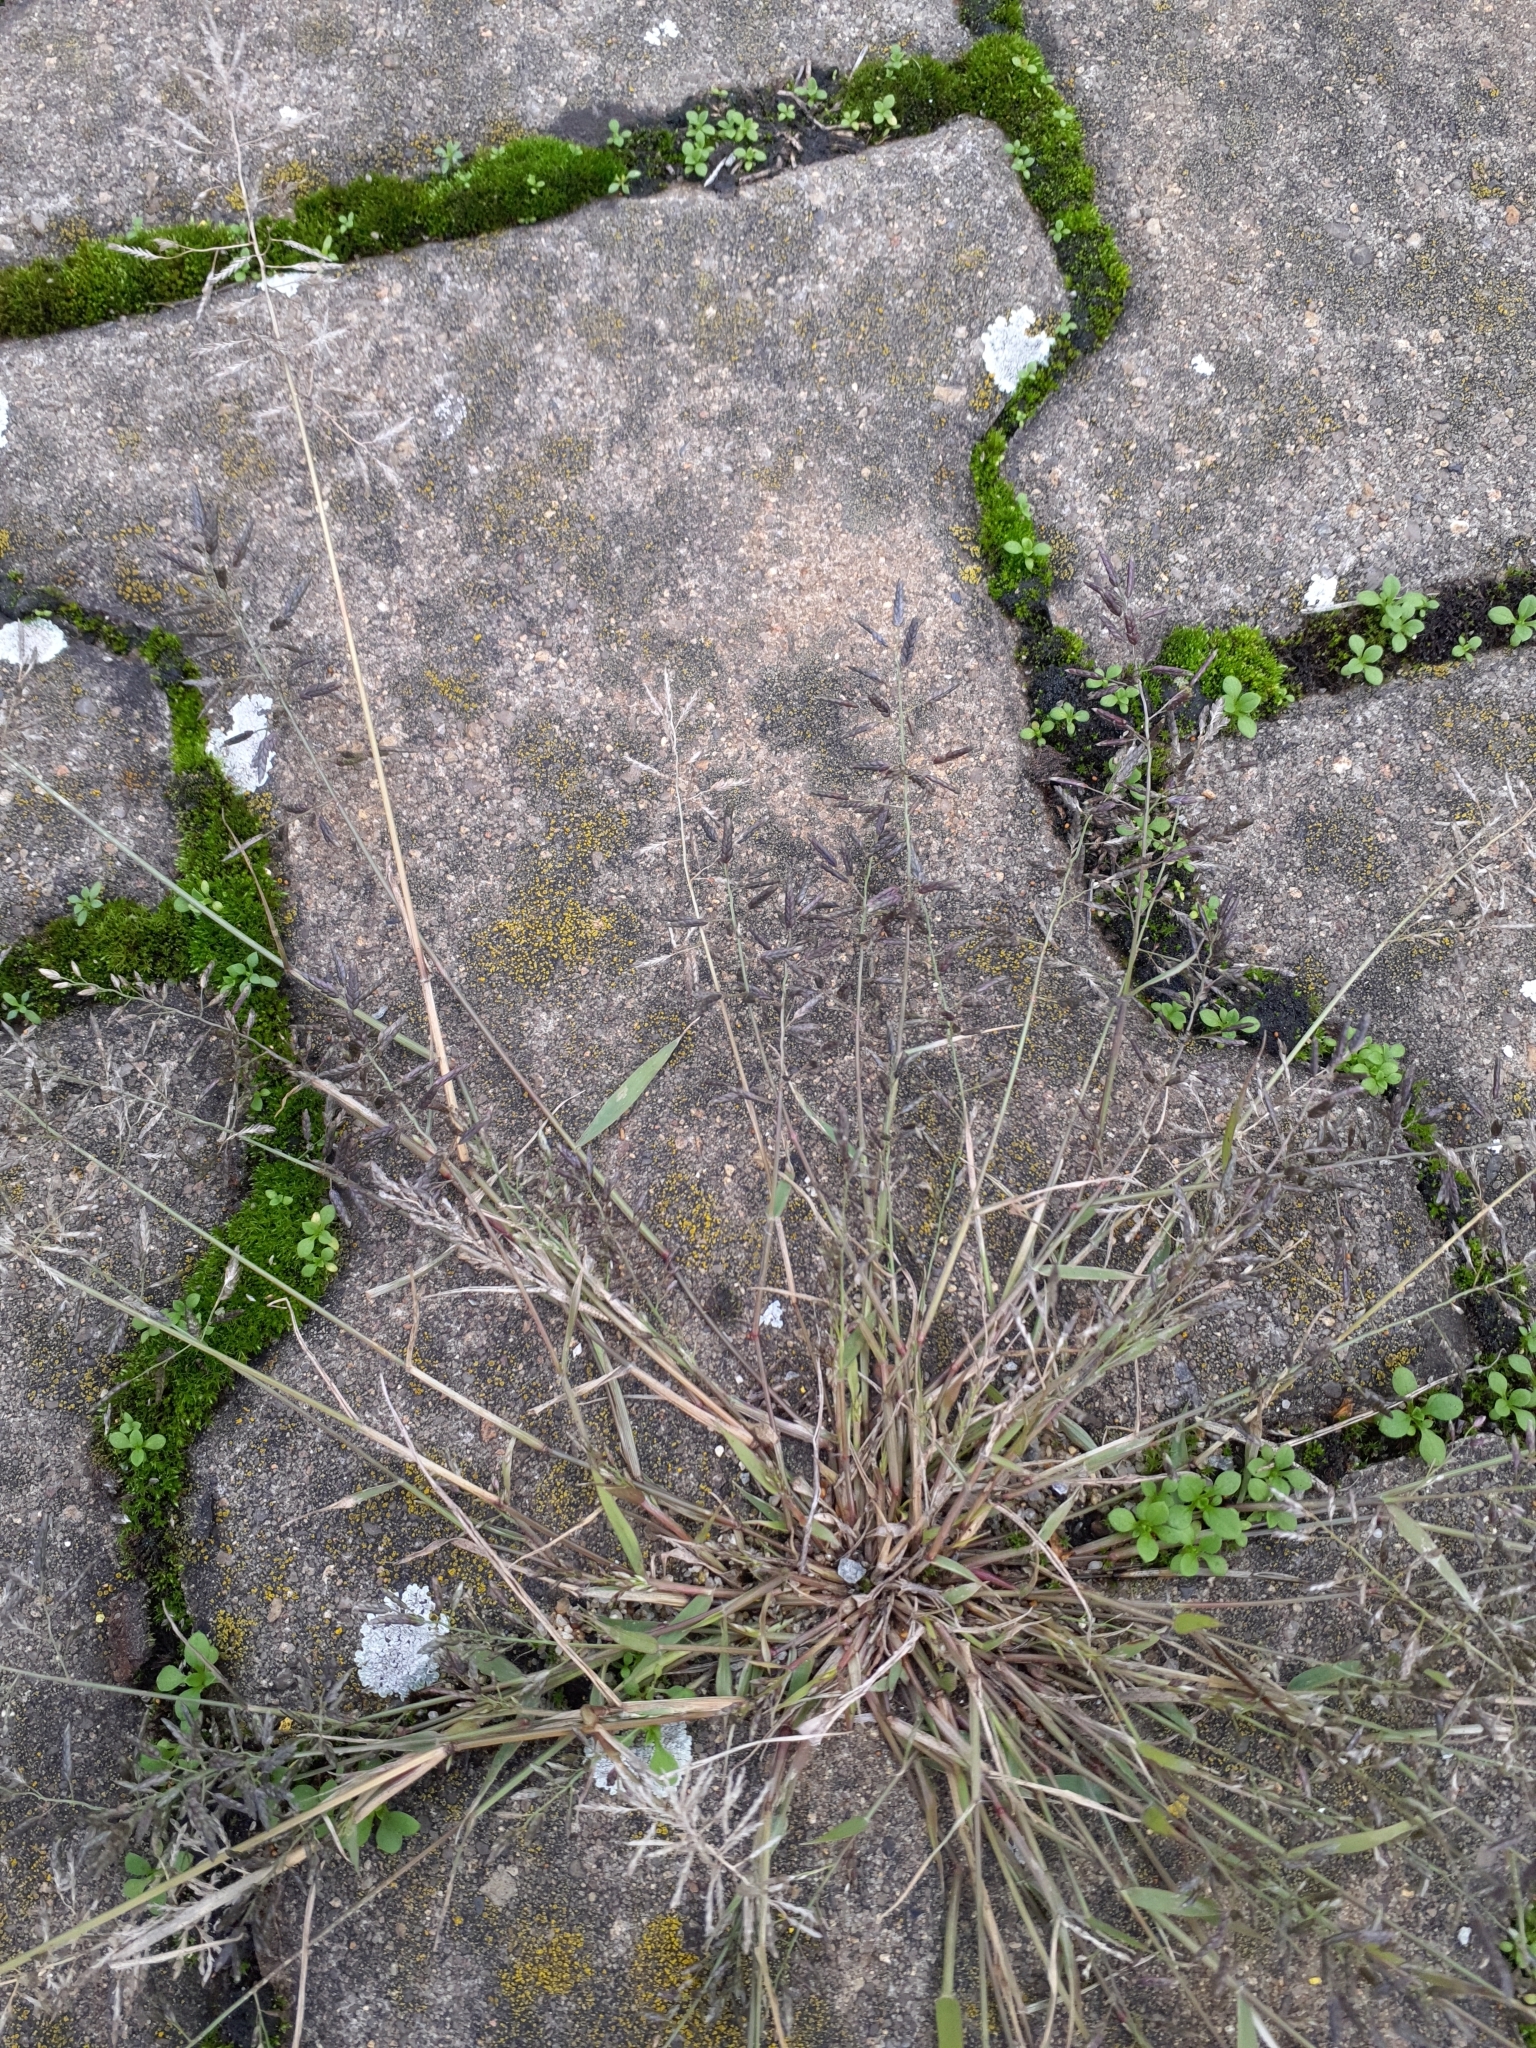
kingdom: Plantae
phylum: Tracheophyta
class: Liliopsida
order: Poales
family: Poaceae
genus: Eragrostis
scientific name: Eragrostis minor
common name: Small love-grass
